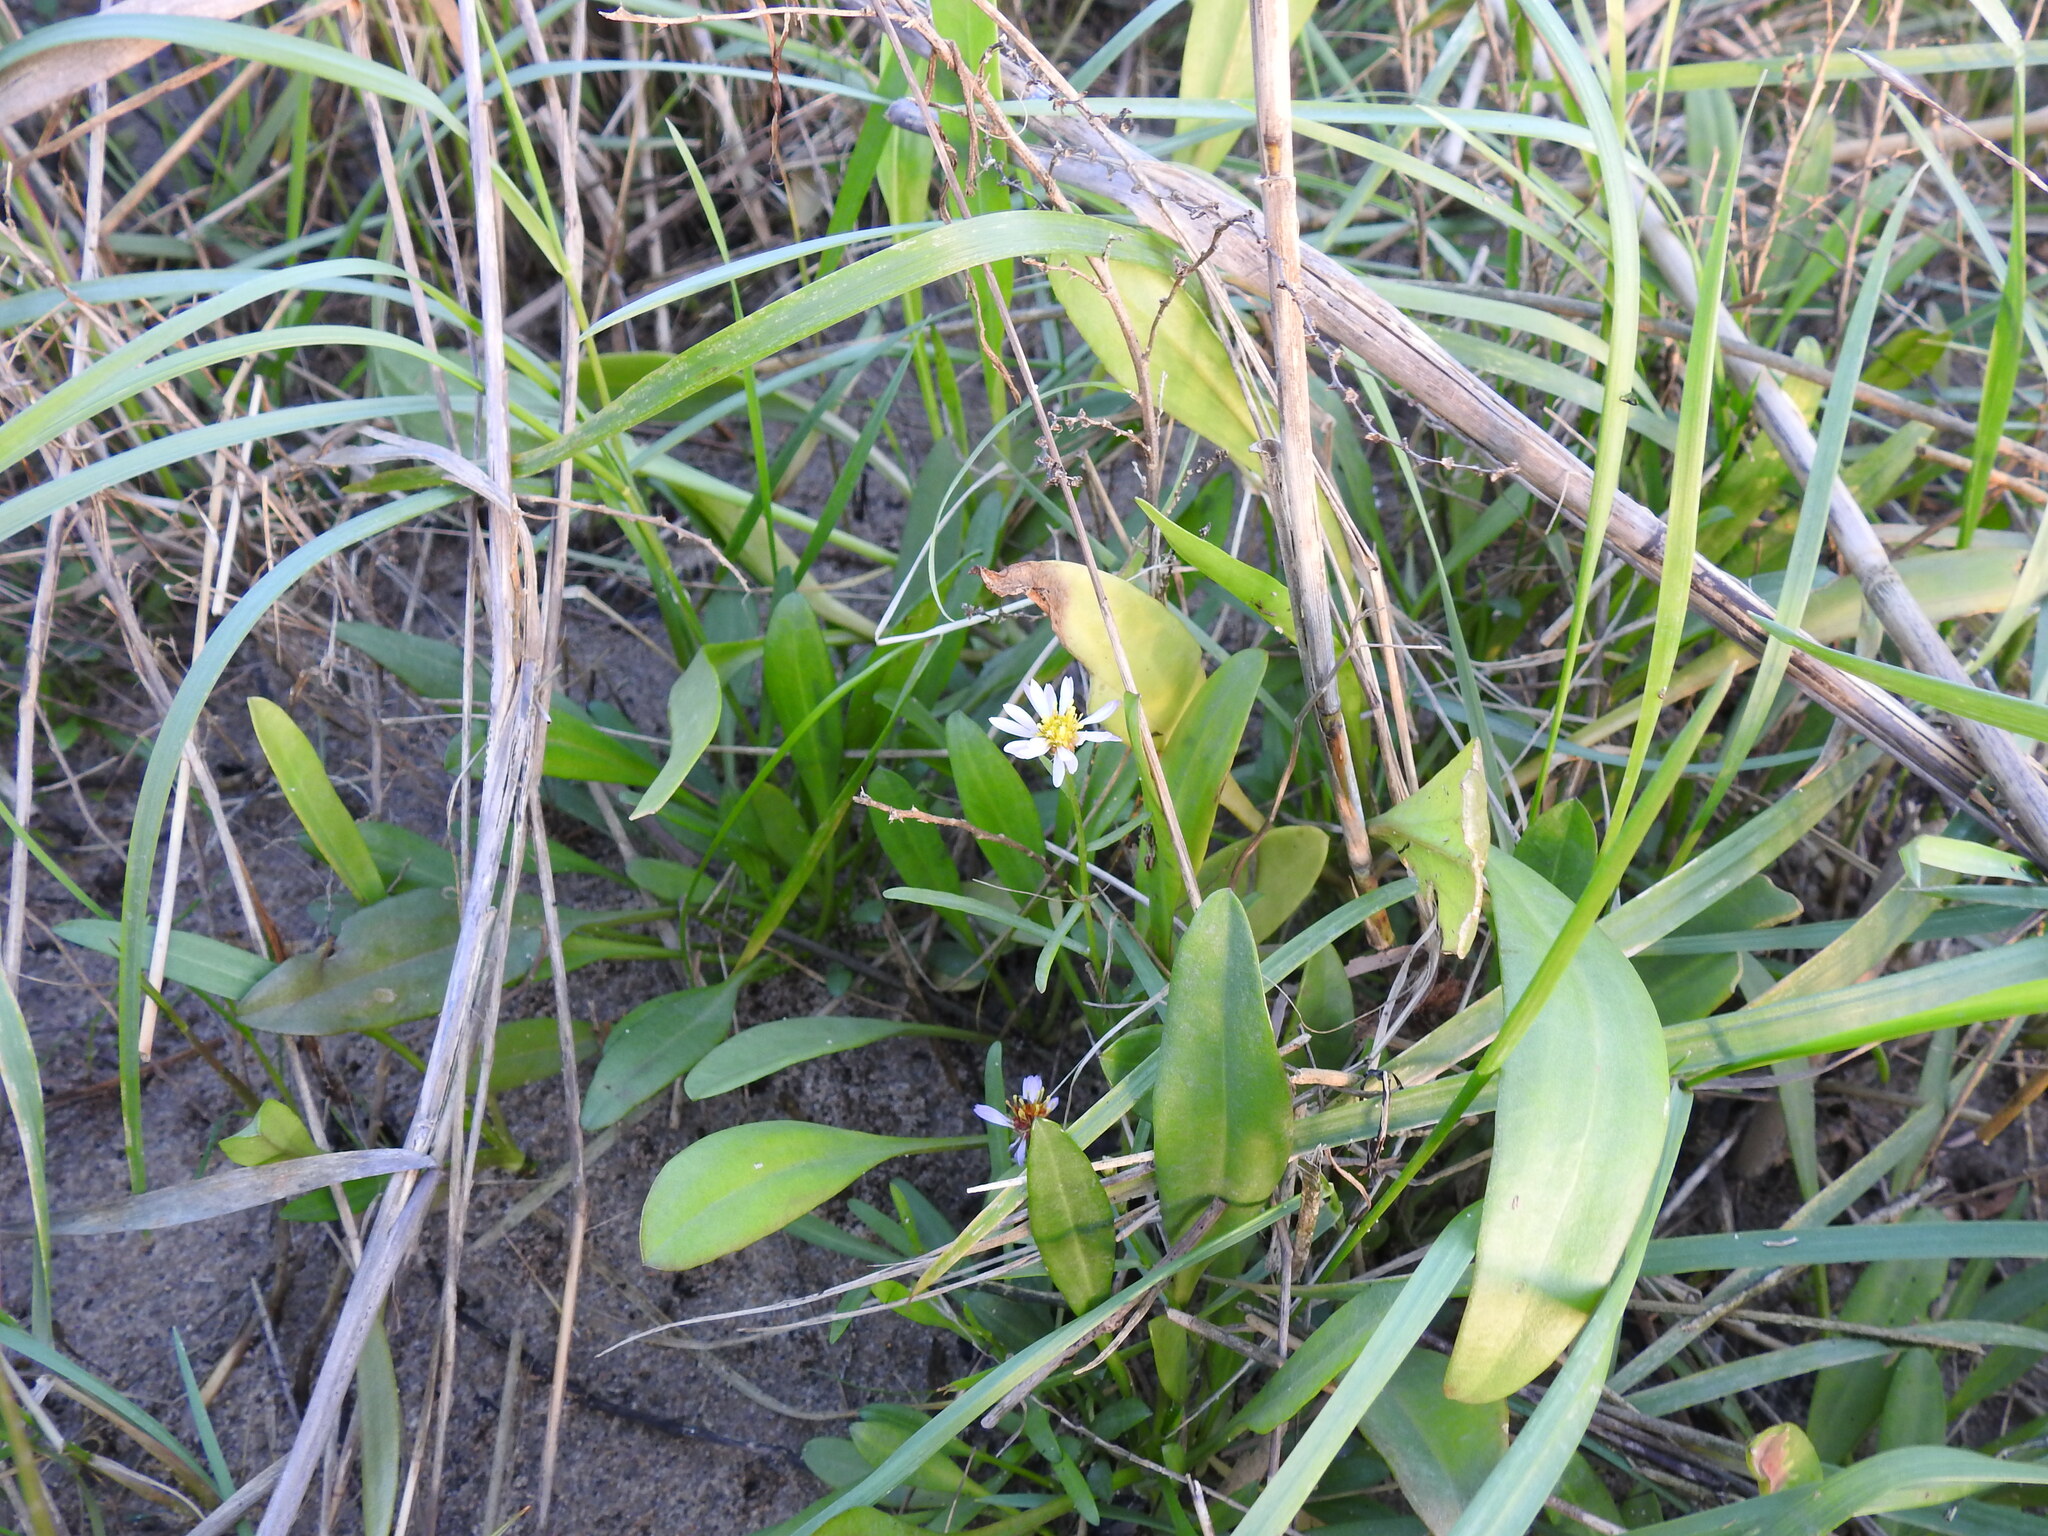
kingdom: Plantae
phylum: Tracheophyta
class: Magnoliopsida
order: Asterales
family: Asteraceae
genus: Tripolium
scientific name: Tripolium pannonicum
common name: Sea aster
